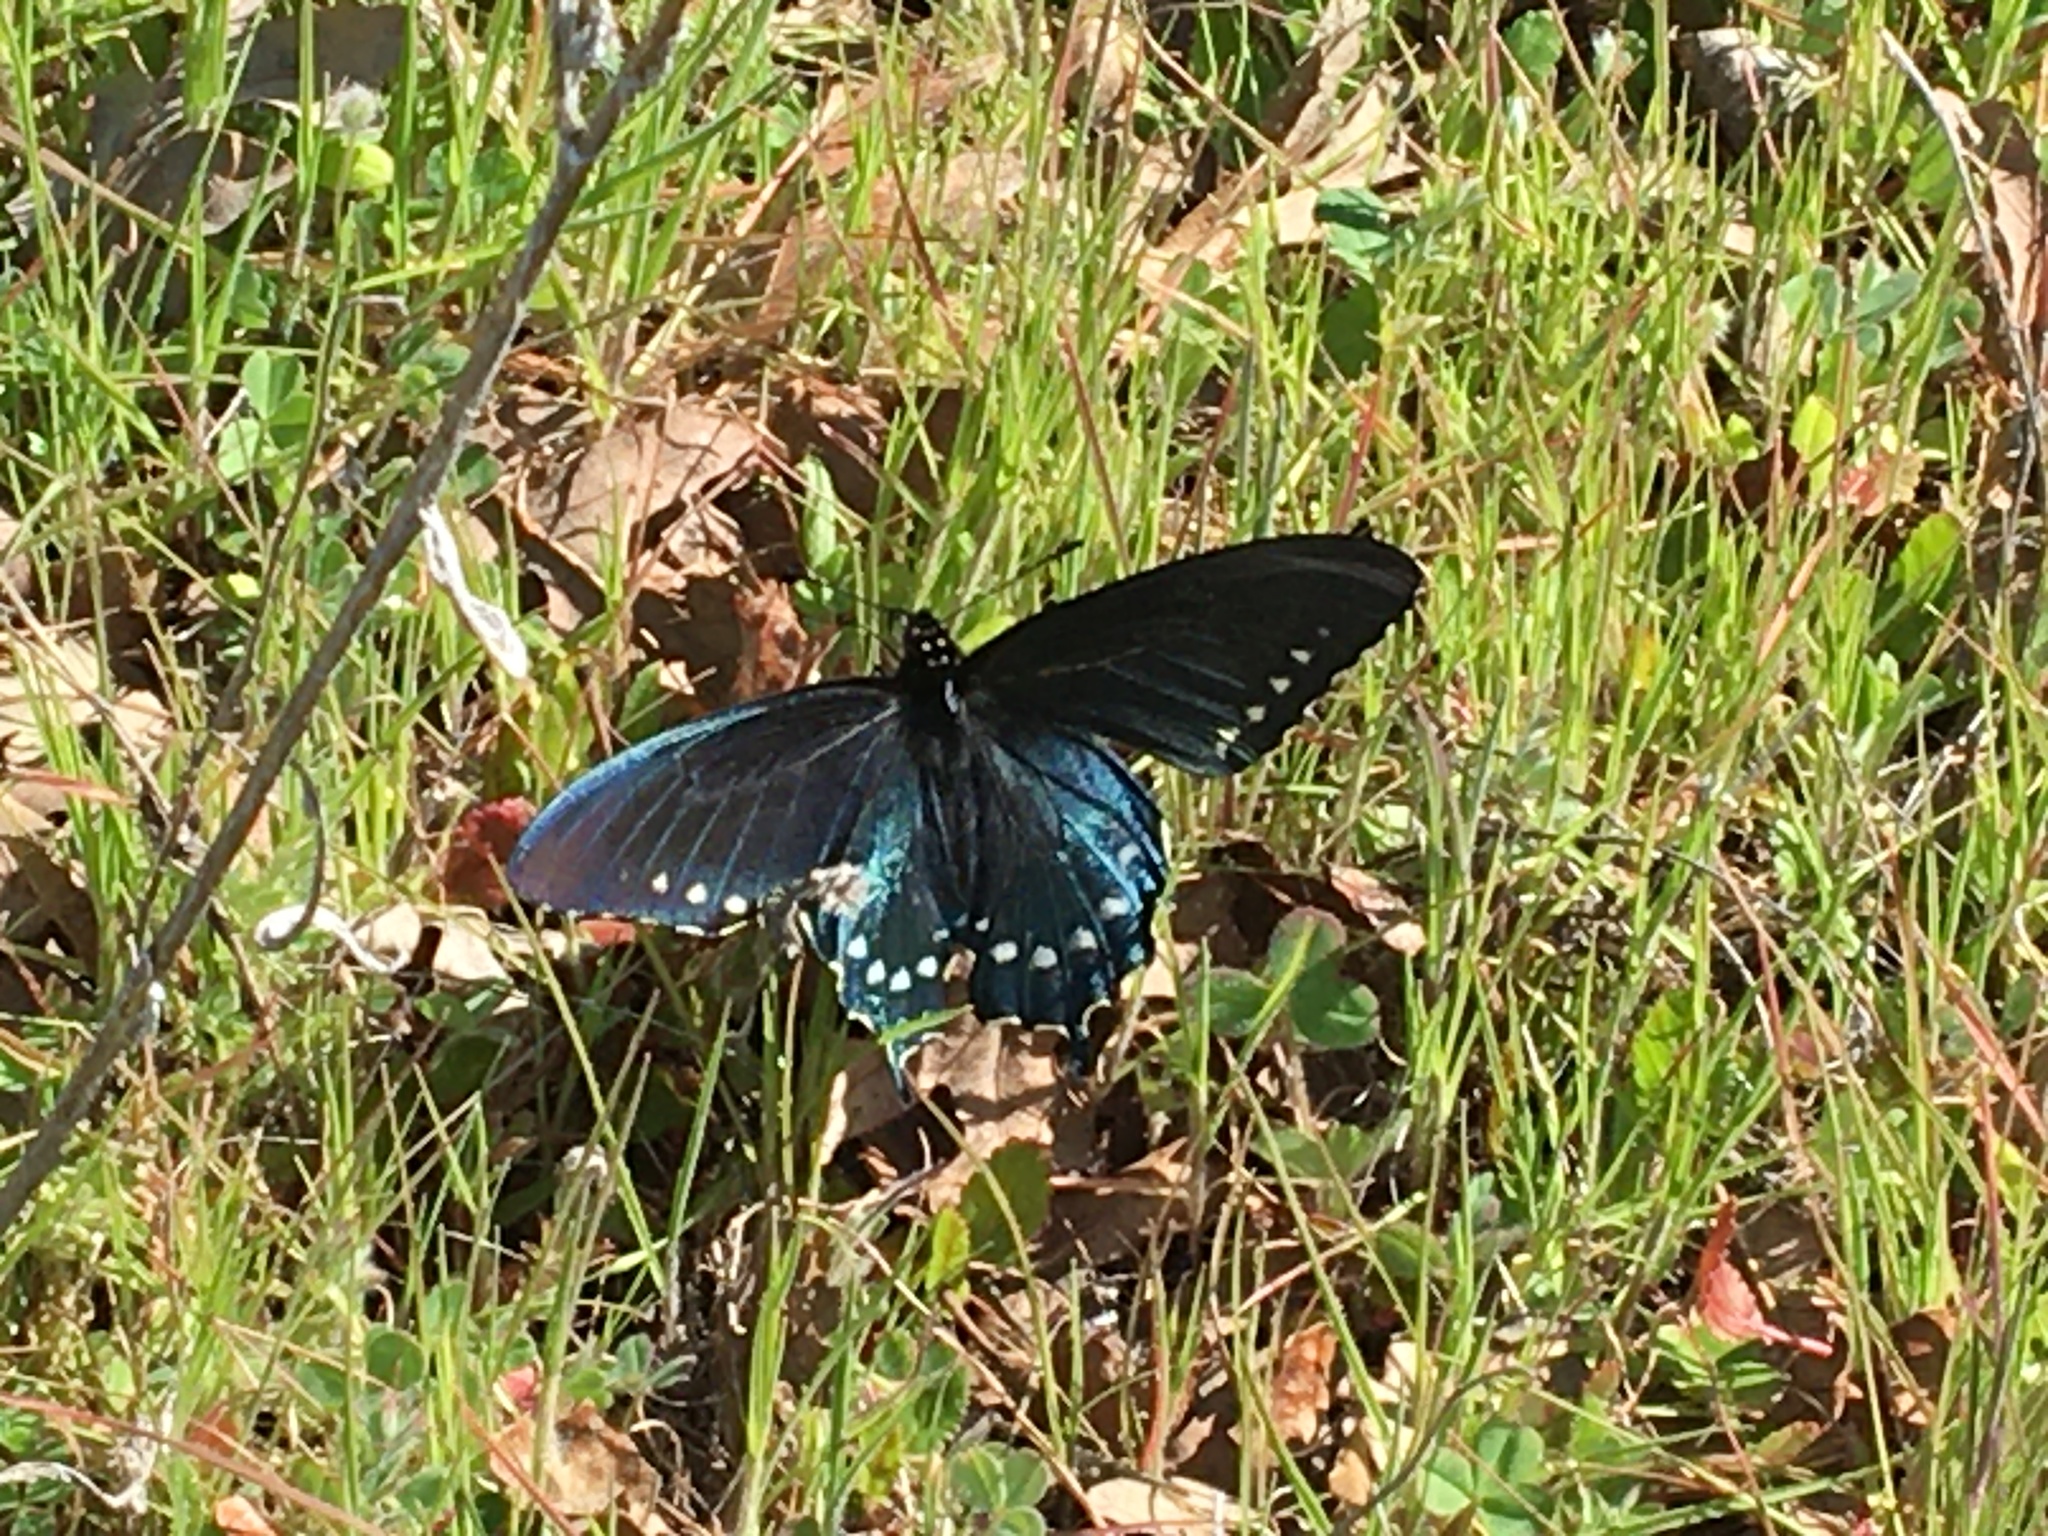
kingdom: Animalia
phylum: Arthropoda
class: Insecta
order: Lepidoptera
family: Papilionidae
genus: Battus
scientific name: Battus philenor
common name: Pipevine swallowtail
